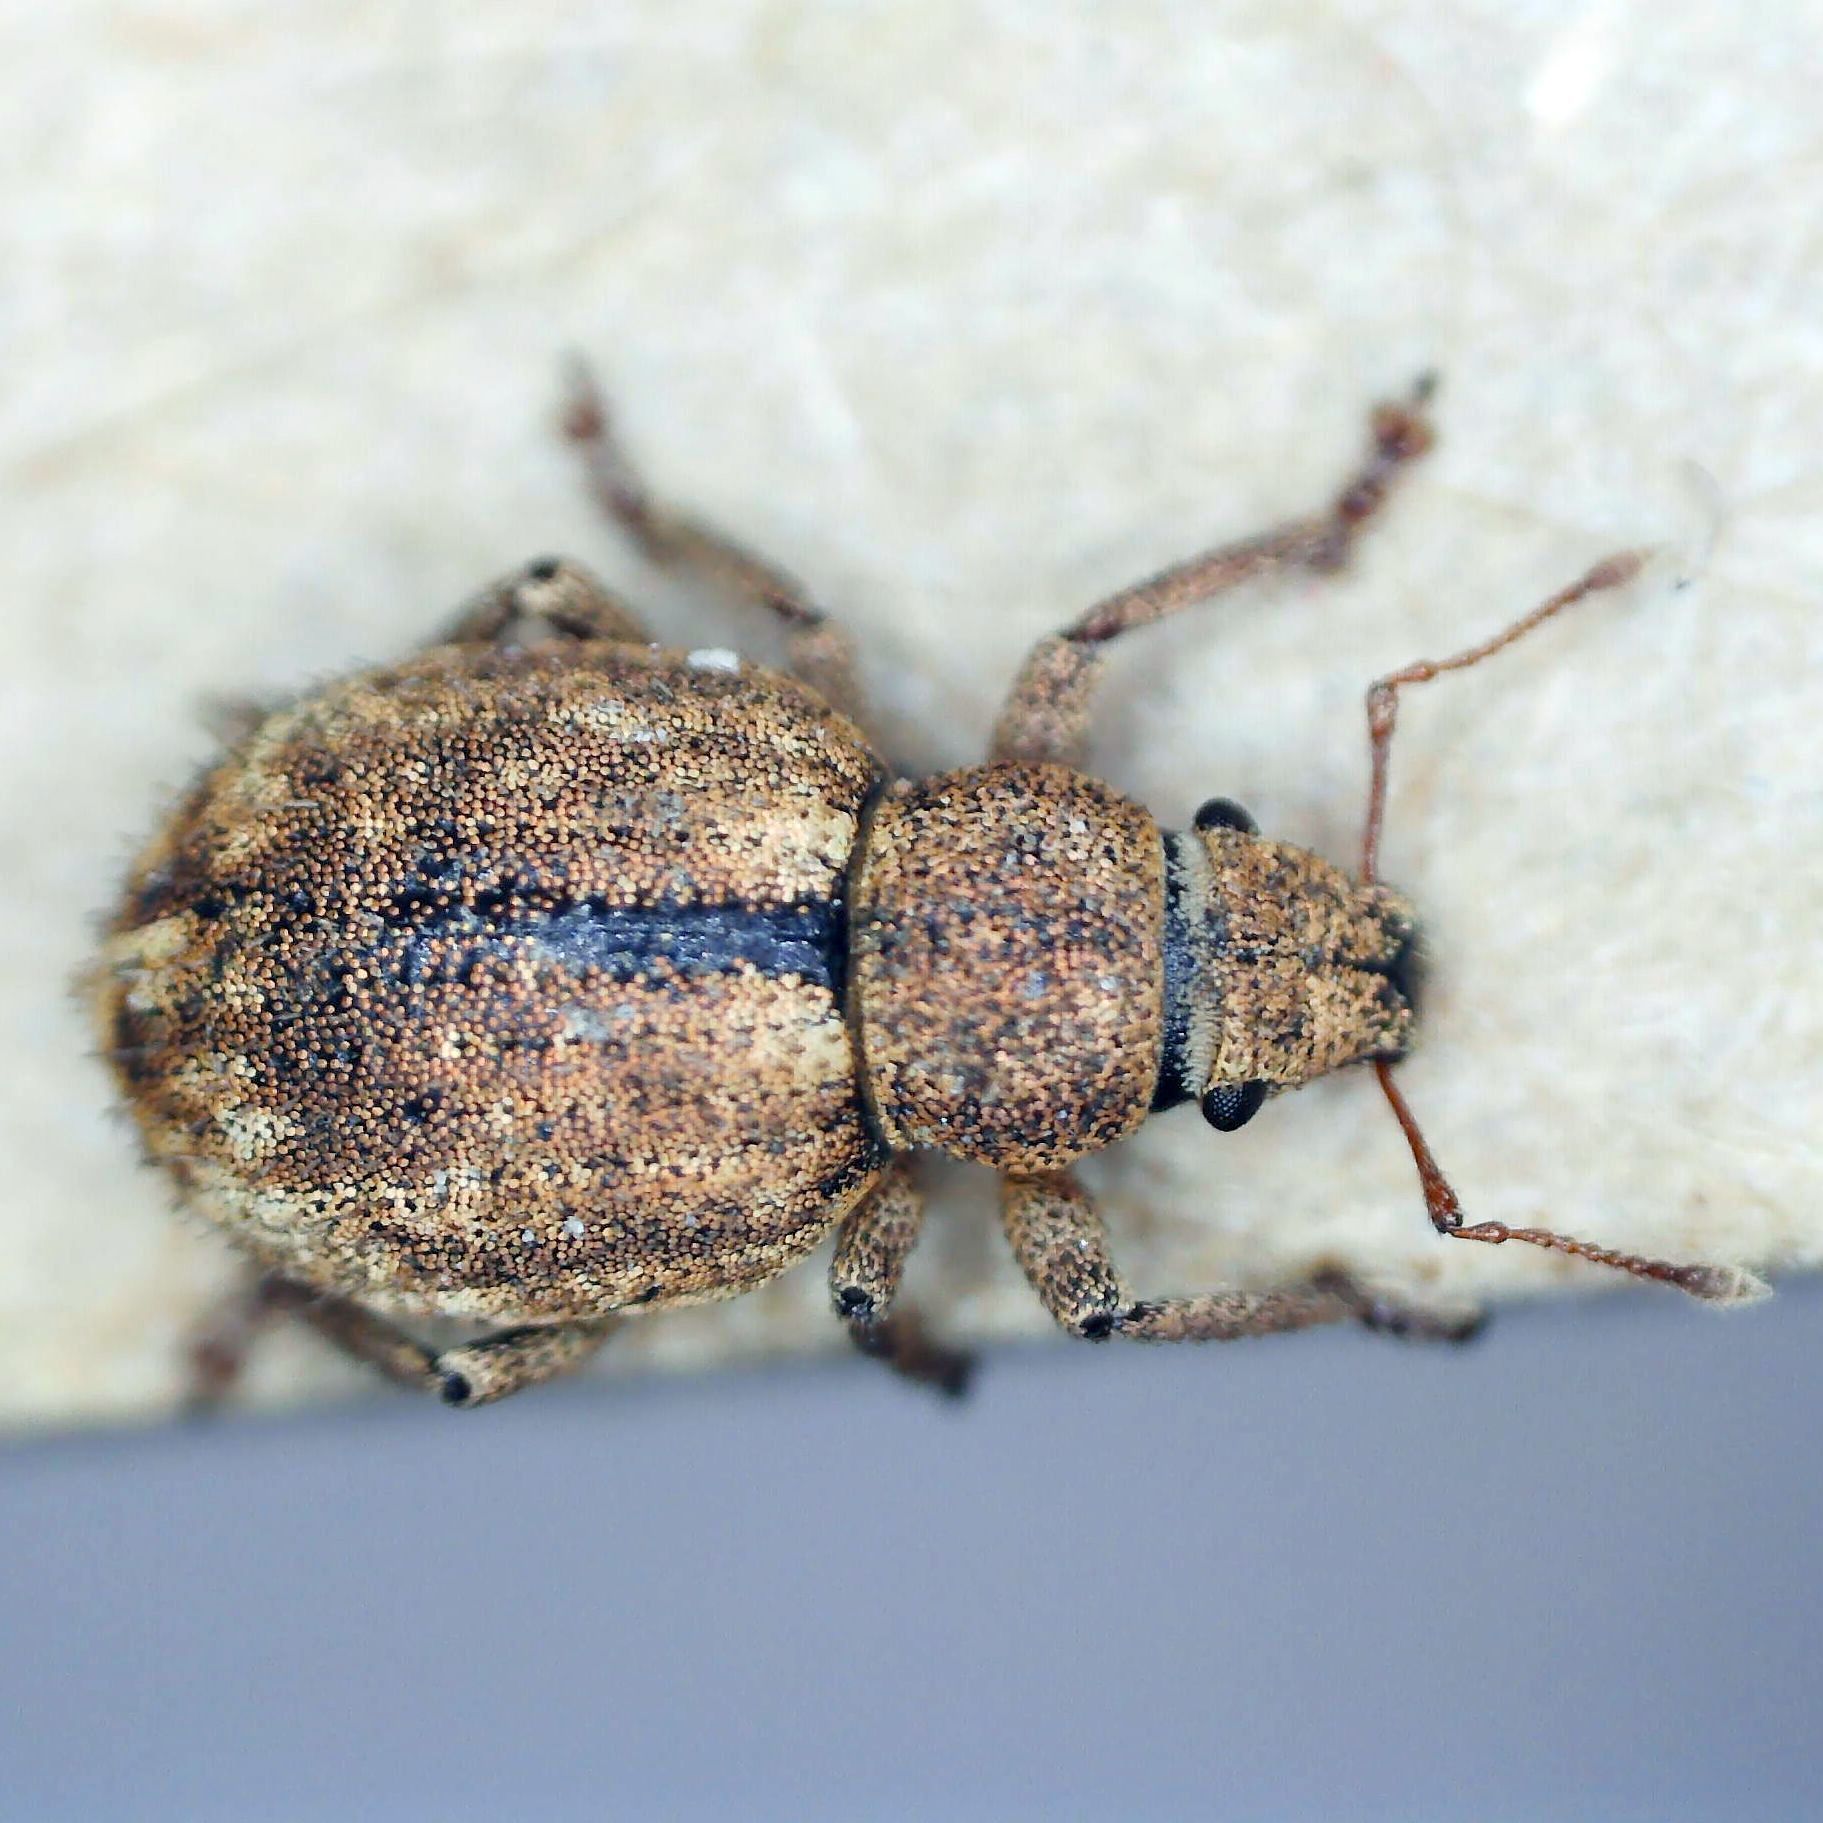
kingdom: Animalia
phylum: Arthropoda
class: Insecta
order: Coleoptera
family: Curculionidae
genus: Strophosoma
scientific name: Strophosoma melanogrammum
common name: Weevil
